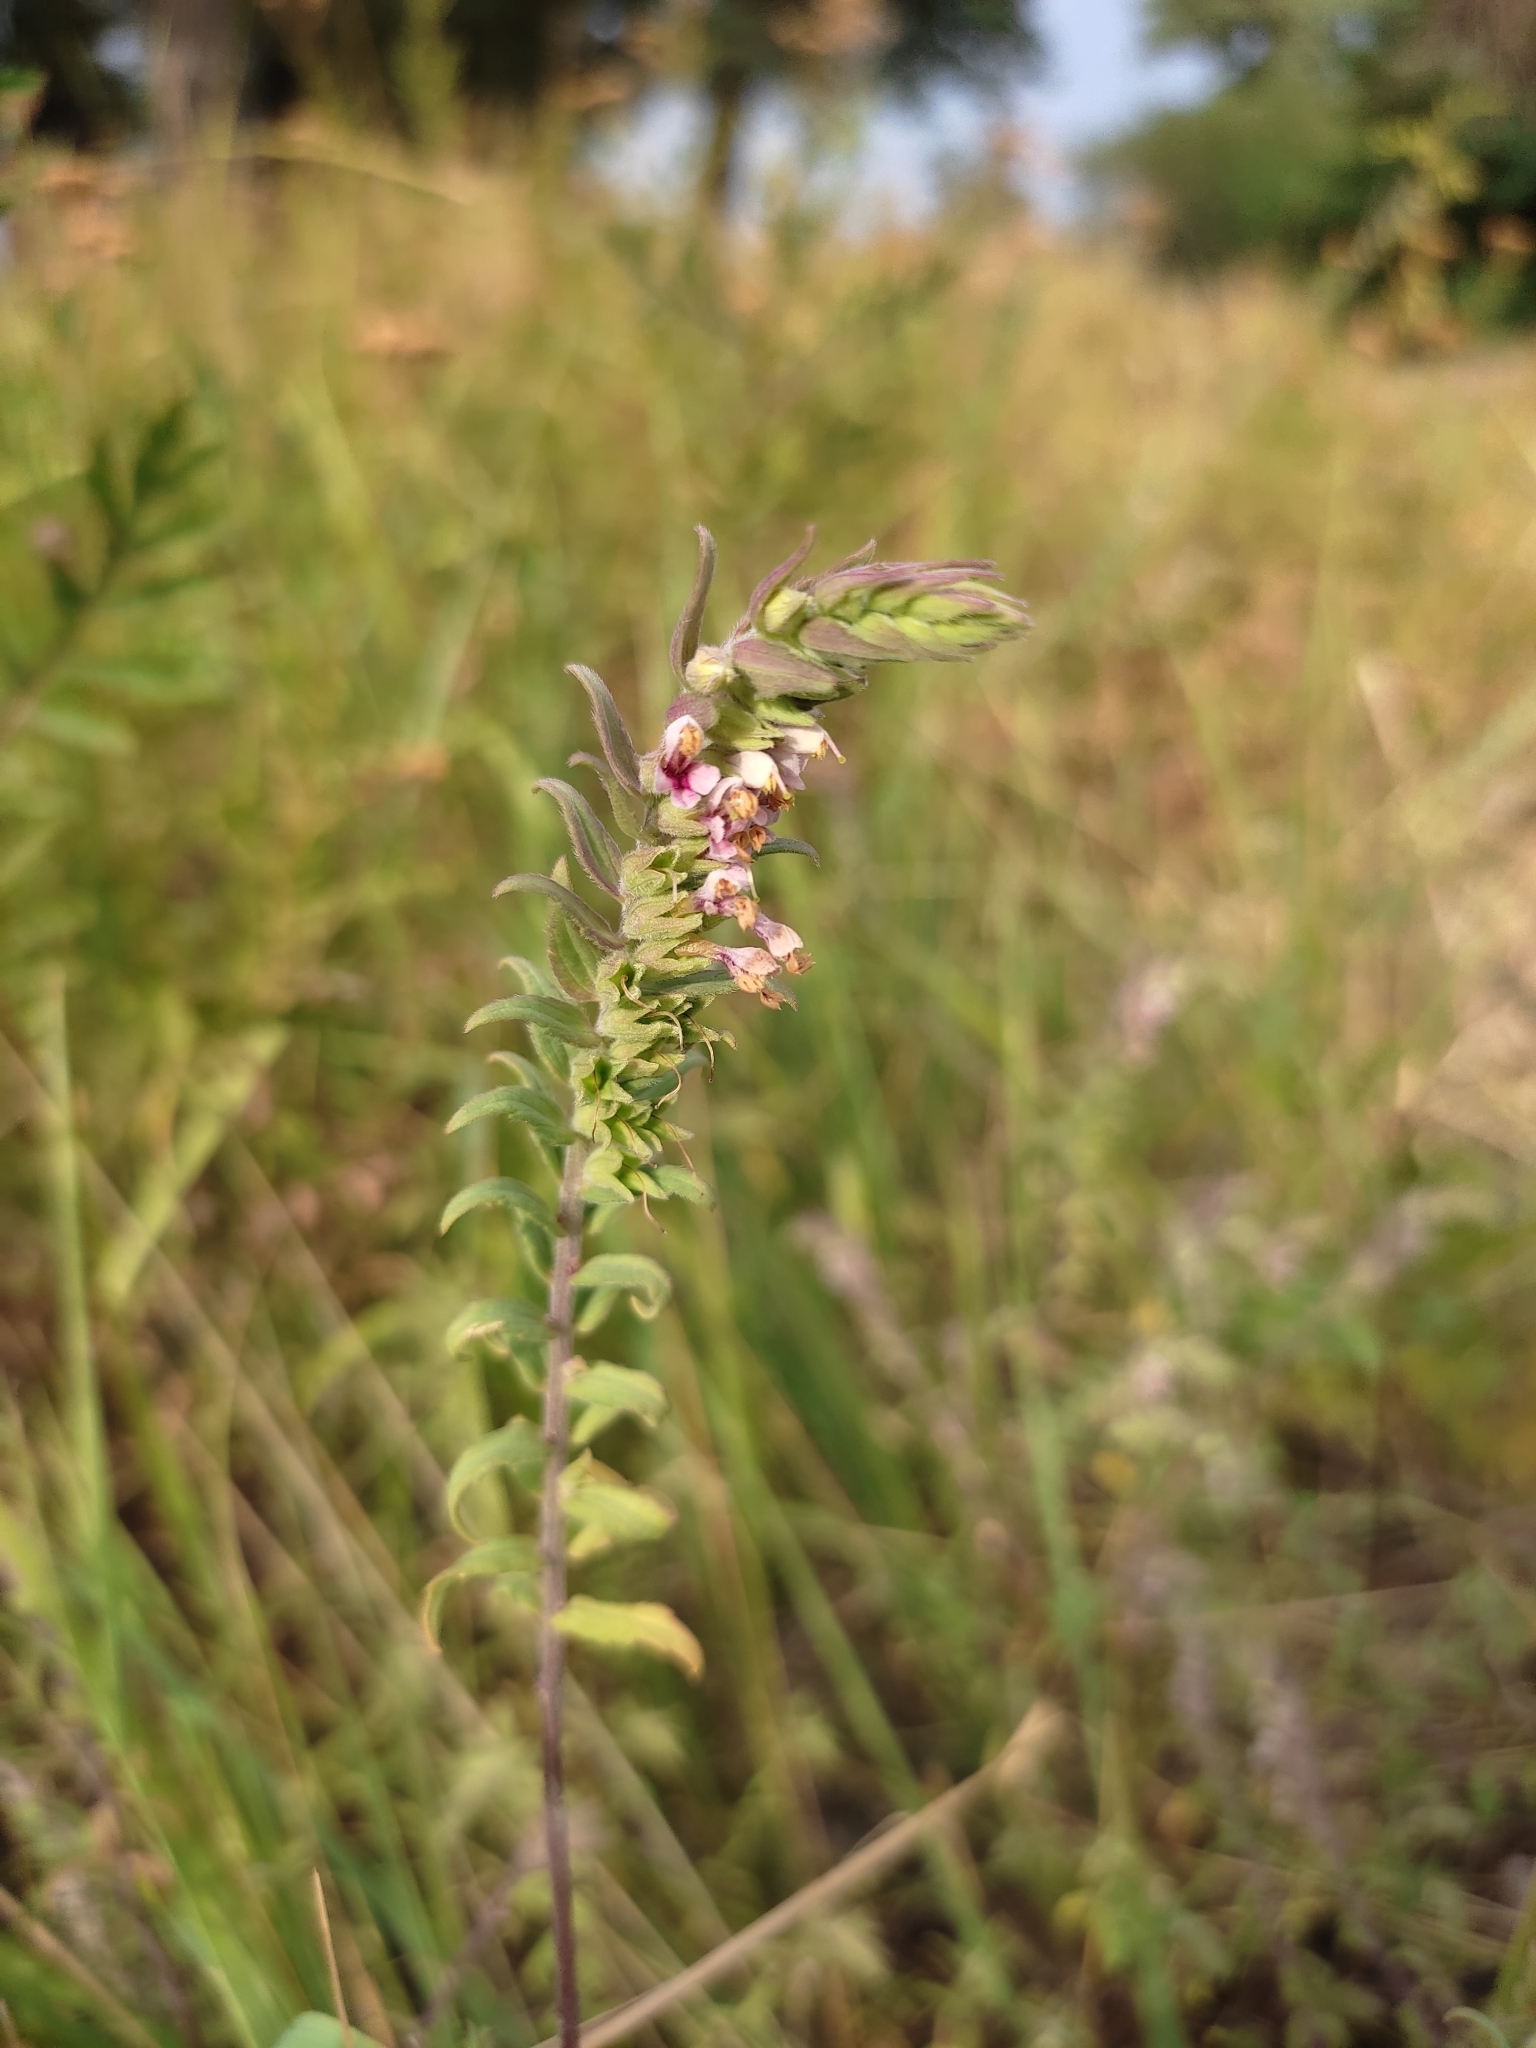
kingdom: Plantae
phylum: Tracheophyta
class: Magnoliopsida
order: Lamiales
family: Orobanchaceae
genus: Odontites
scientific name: Odontites vulgaris
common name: Broomrape
